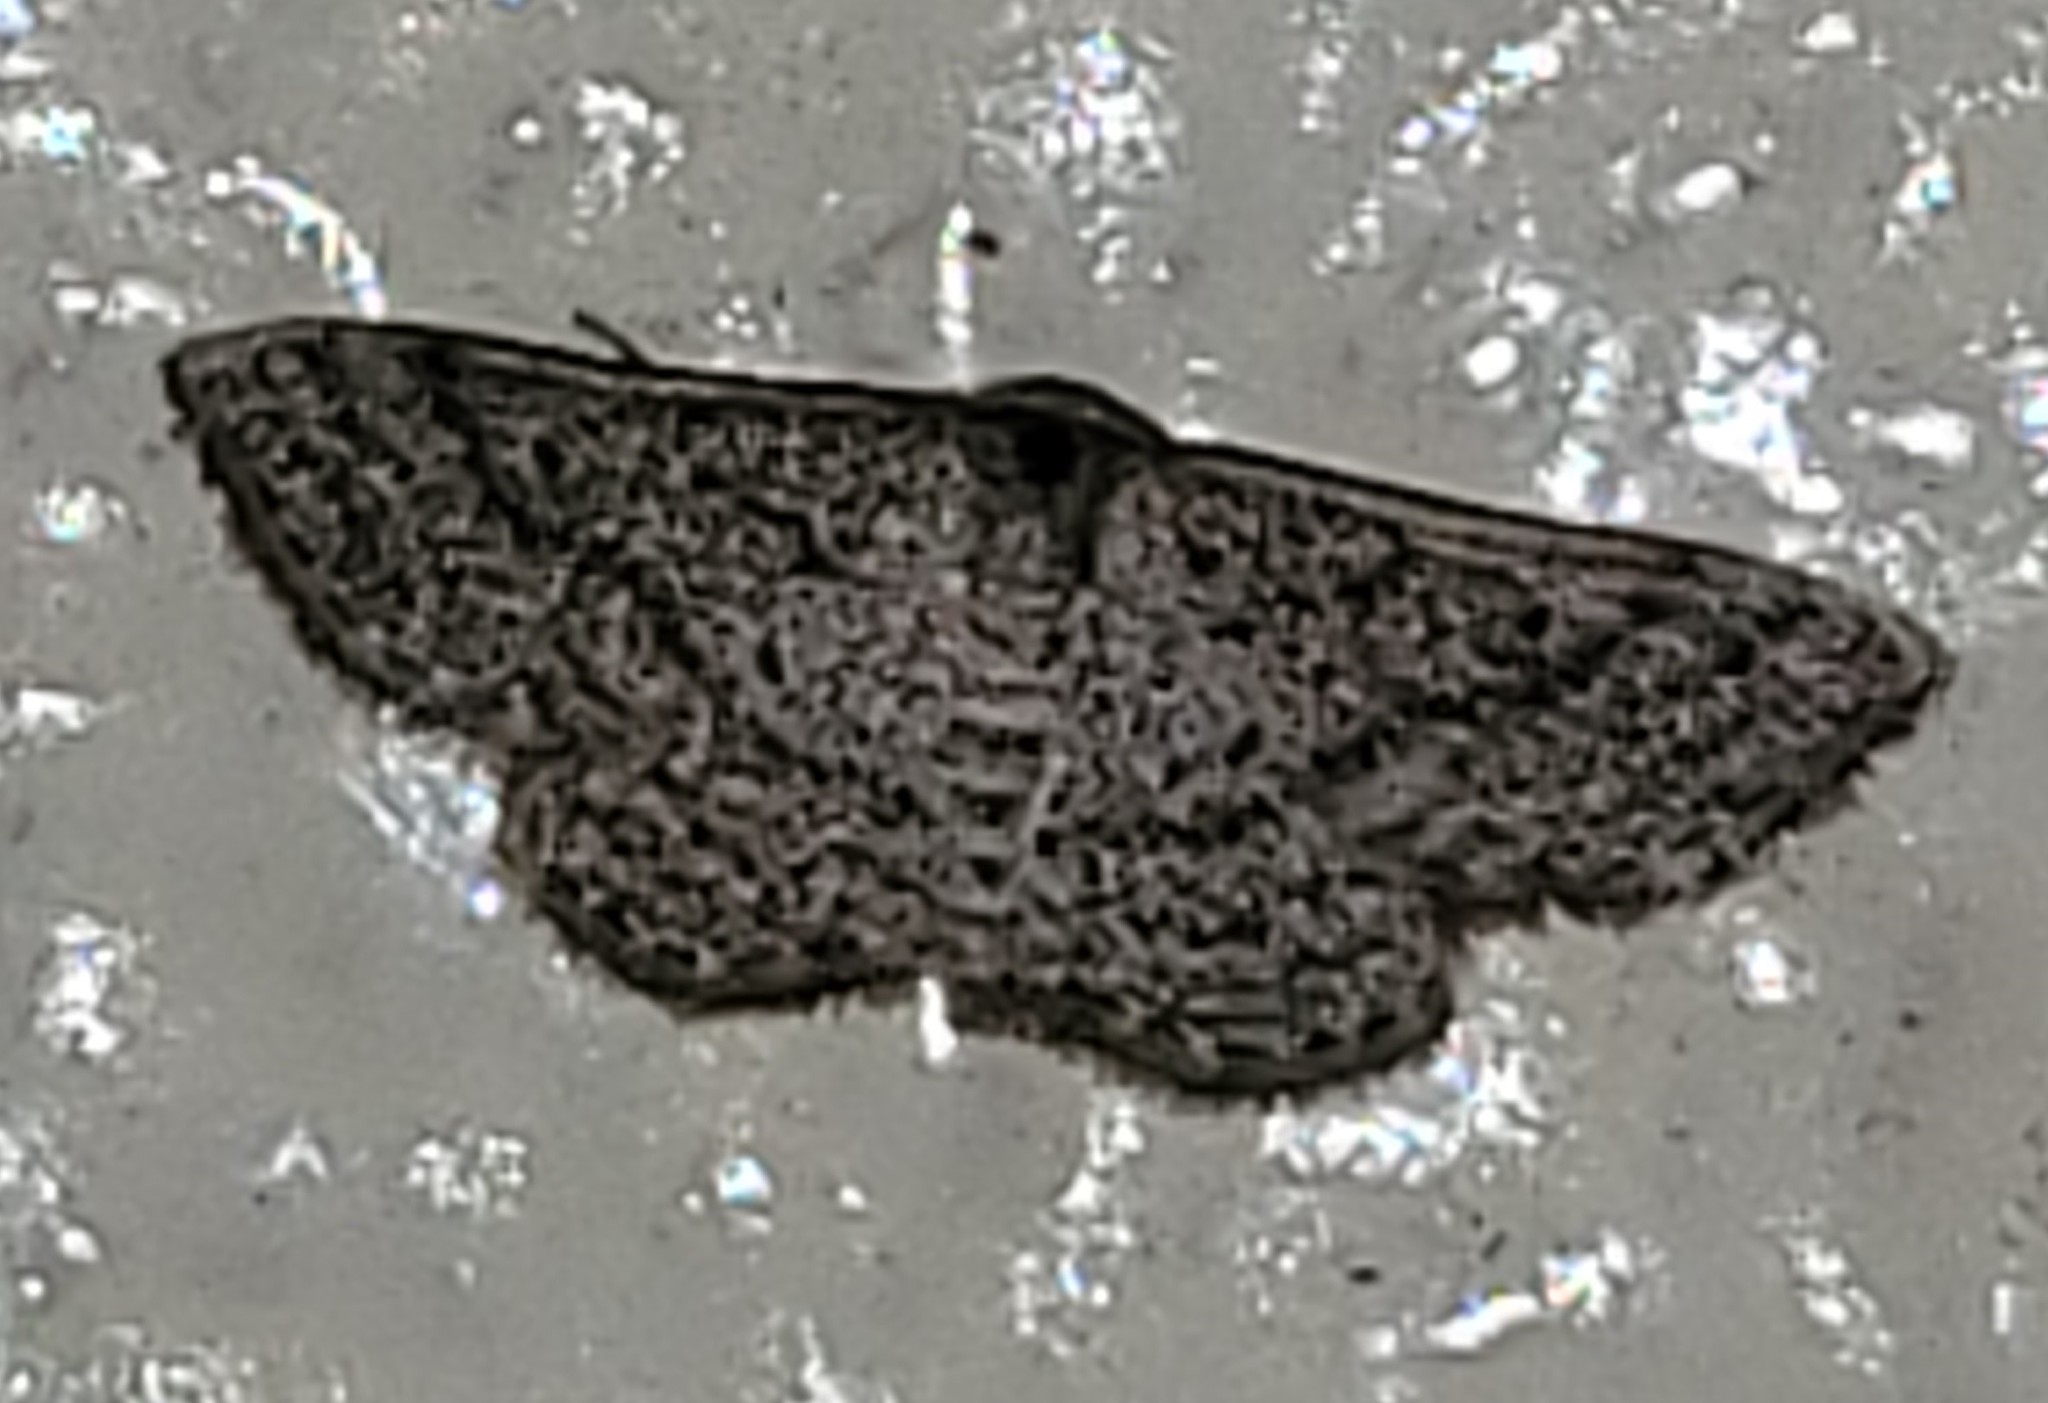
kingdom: Animalia
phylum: Arthropoda
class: Insecta
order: Lepidoptera
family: Geometridae
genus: Lobocleta
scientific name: Lobocleta ossularia
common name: Drab brown wave
